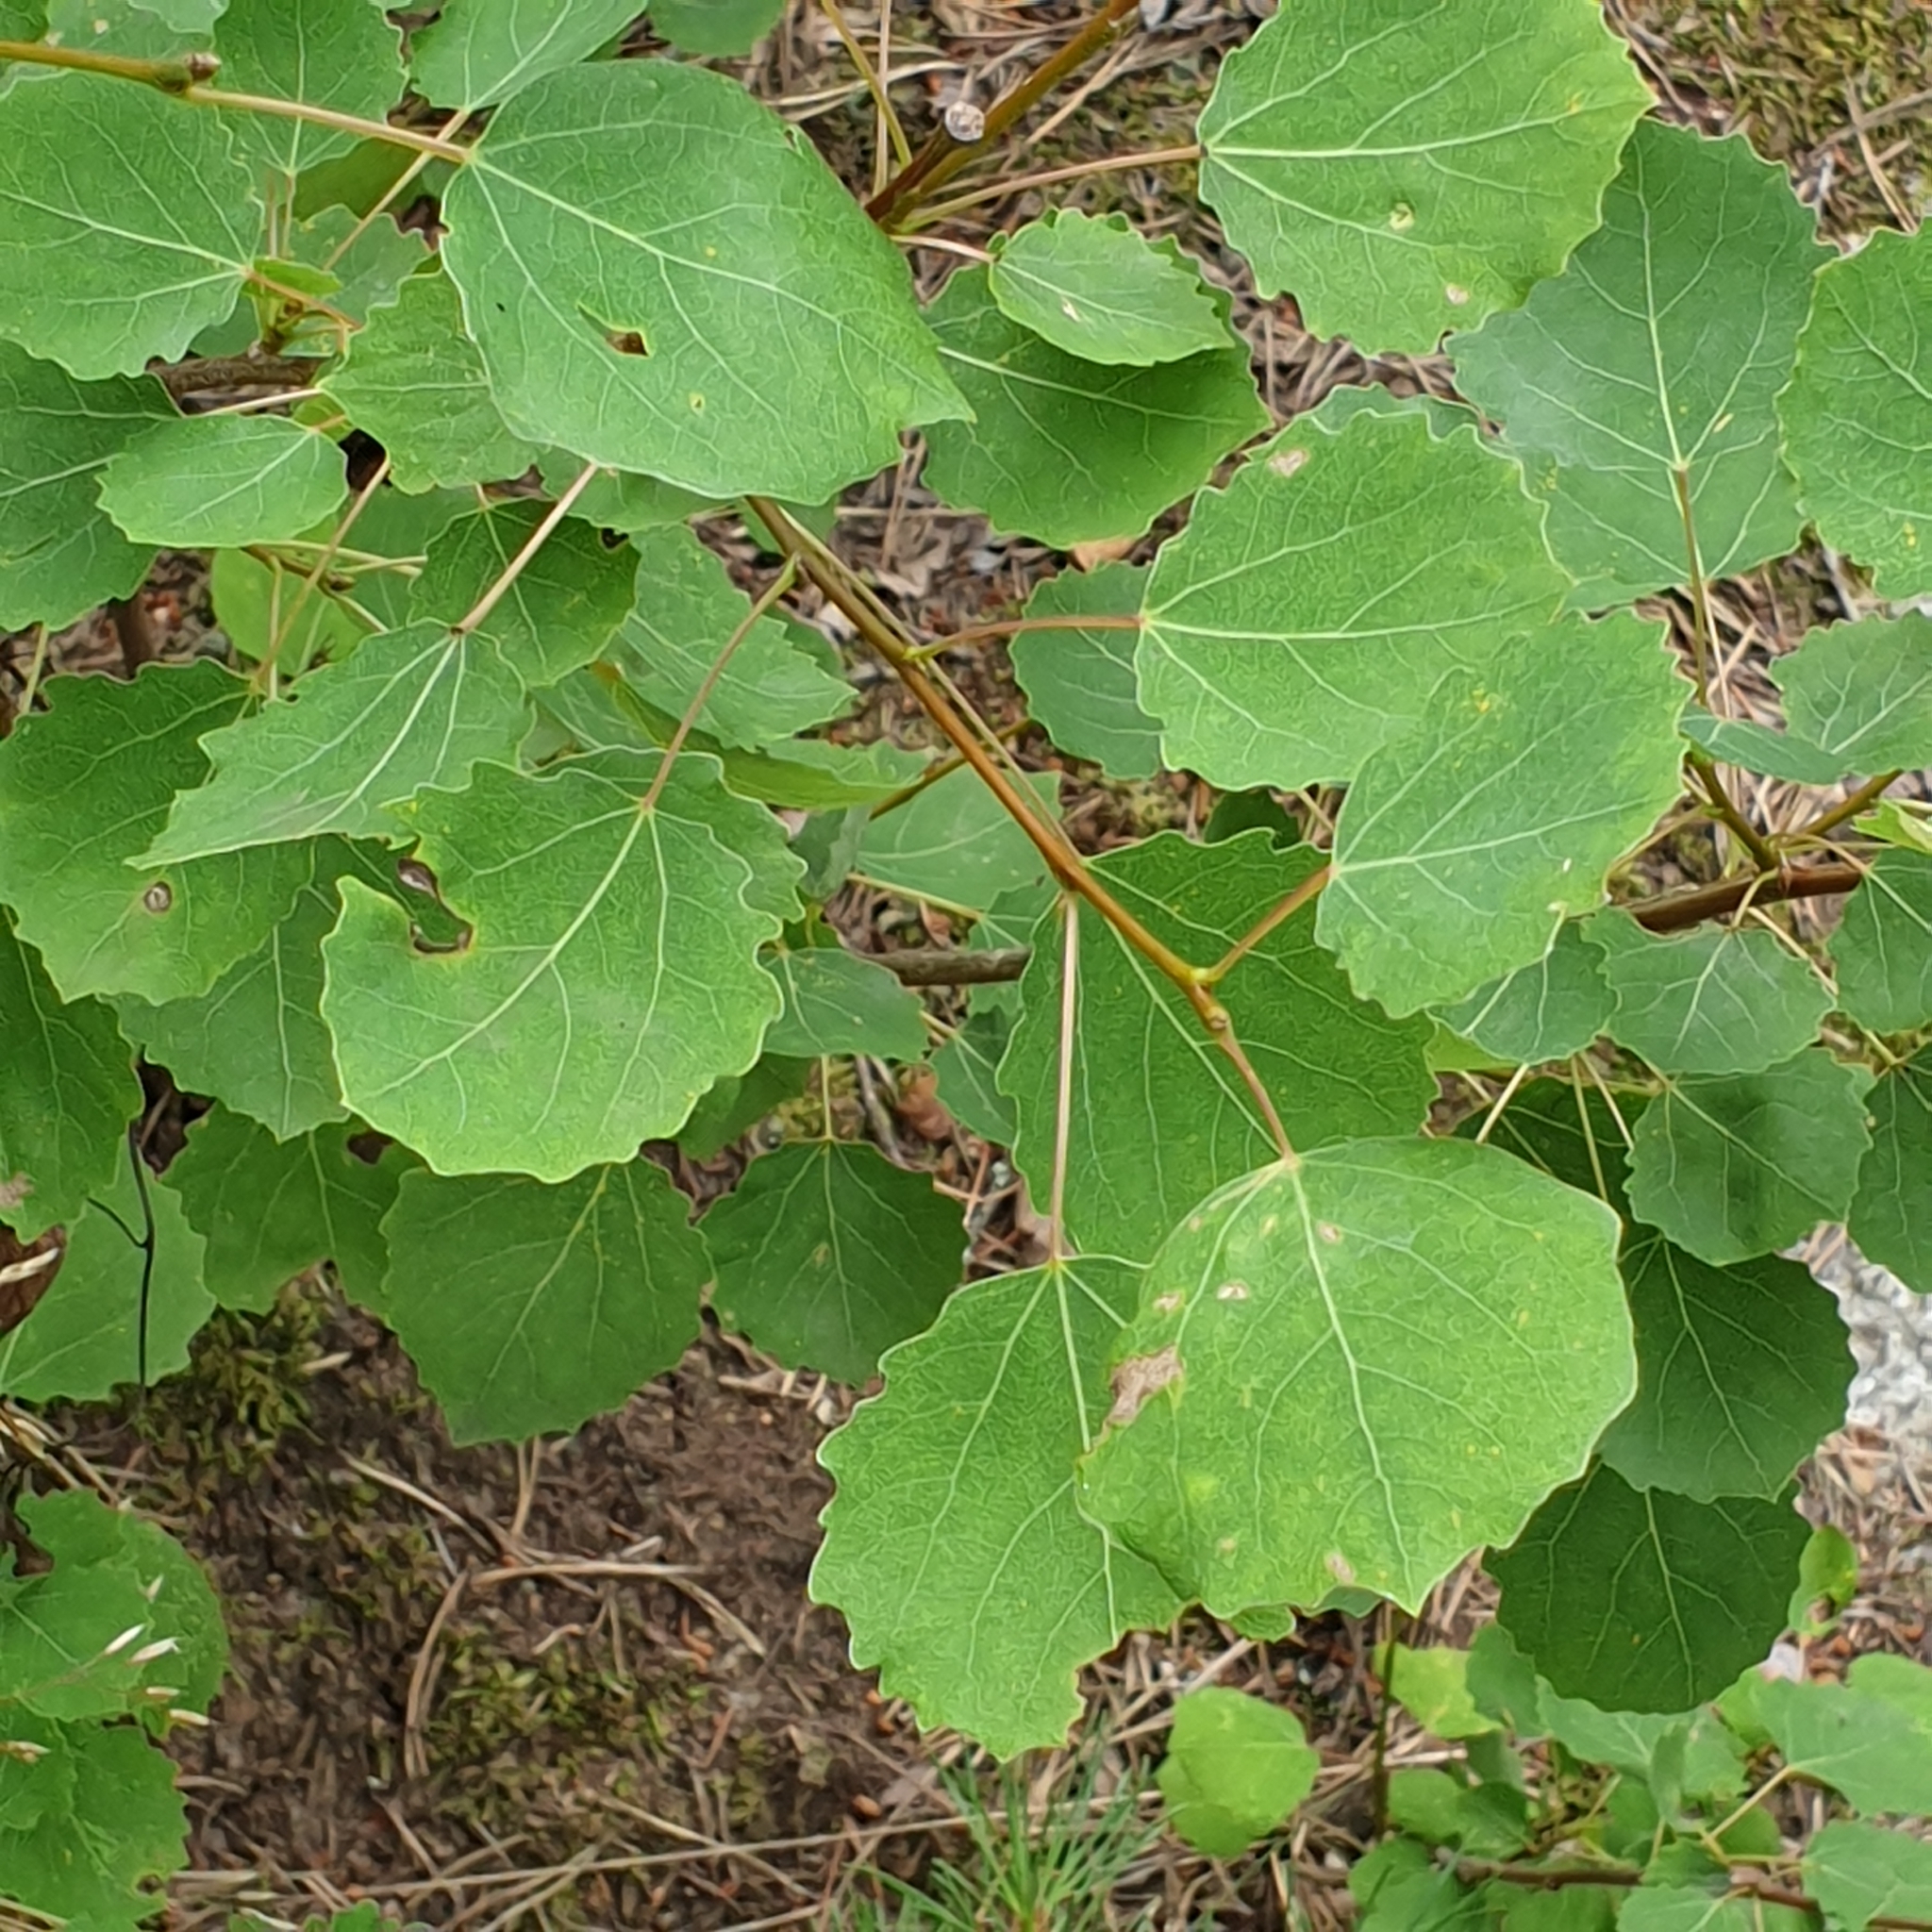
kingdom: Plantae
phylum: Tracheophyta
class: Magnoliopsida
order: Malpighiales
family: Salicaceae
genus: Populus
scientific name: Populus tremula
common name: European aspen
